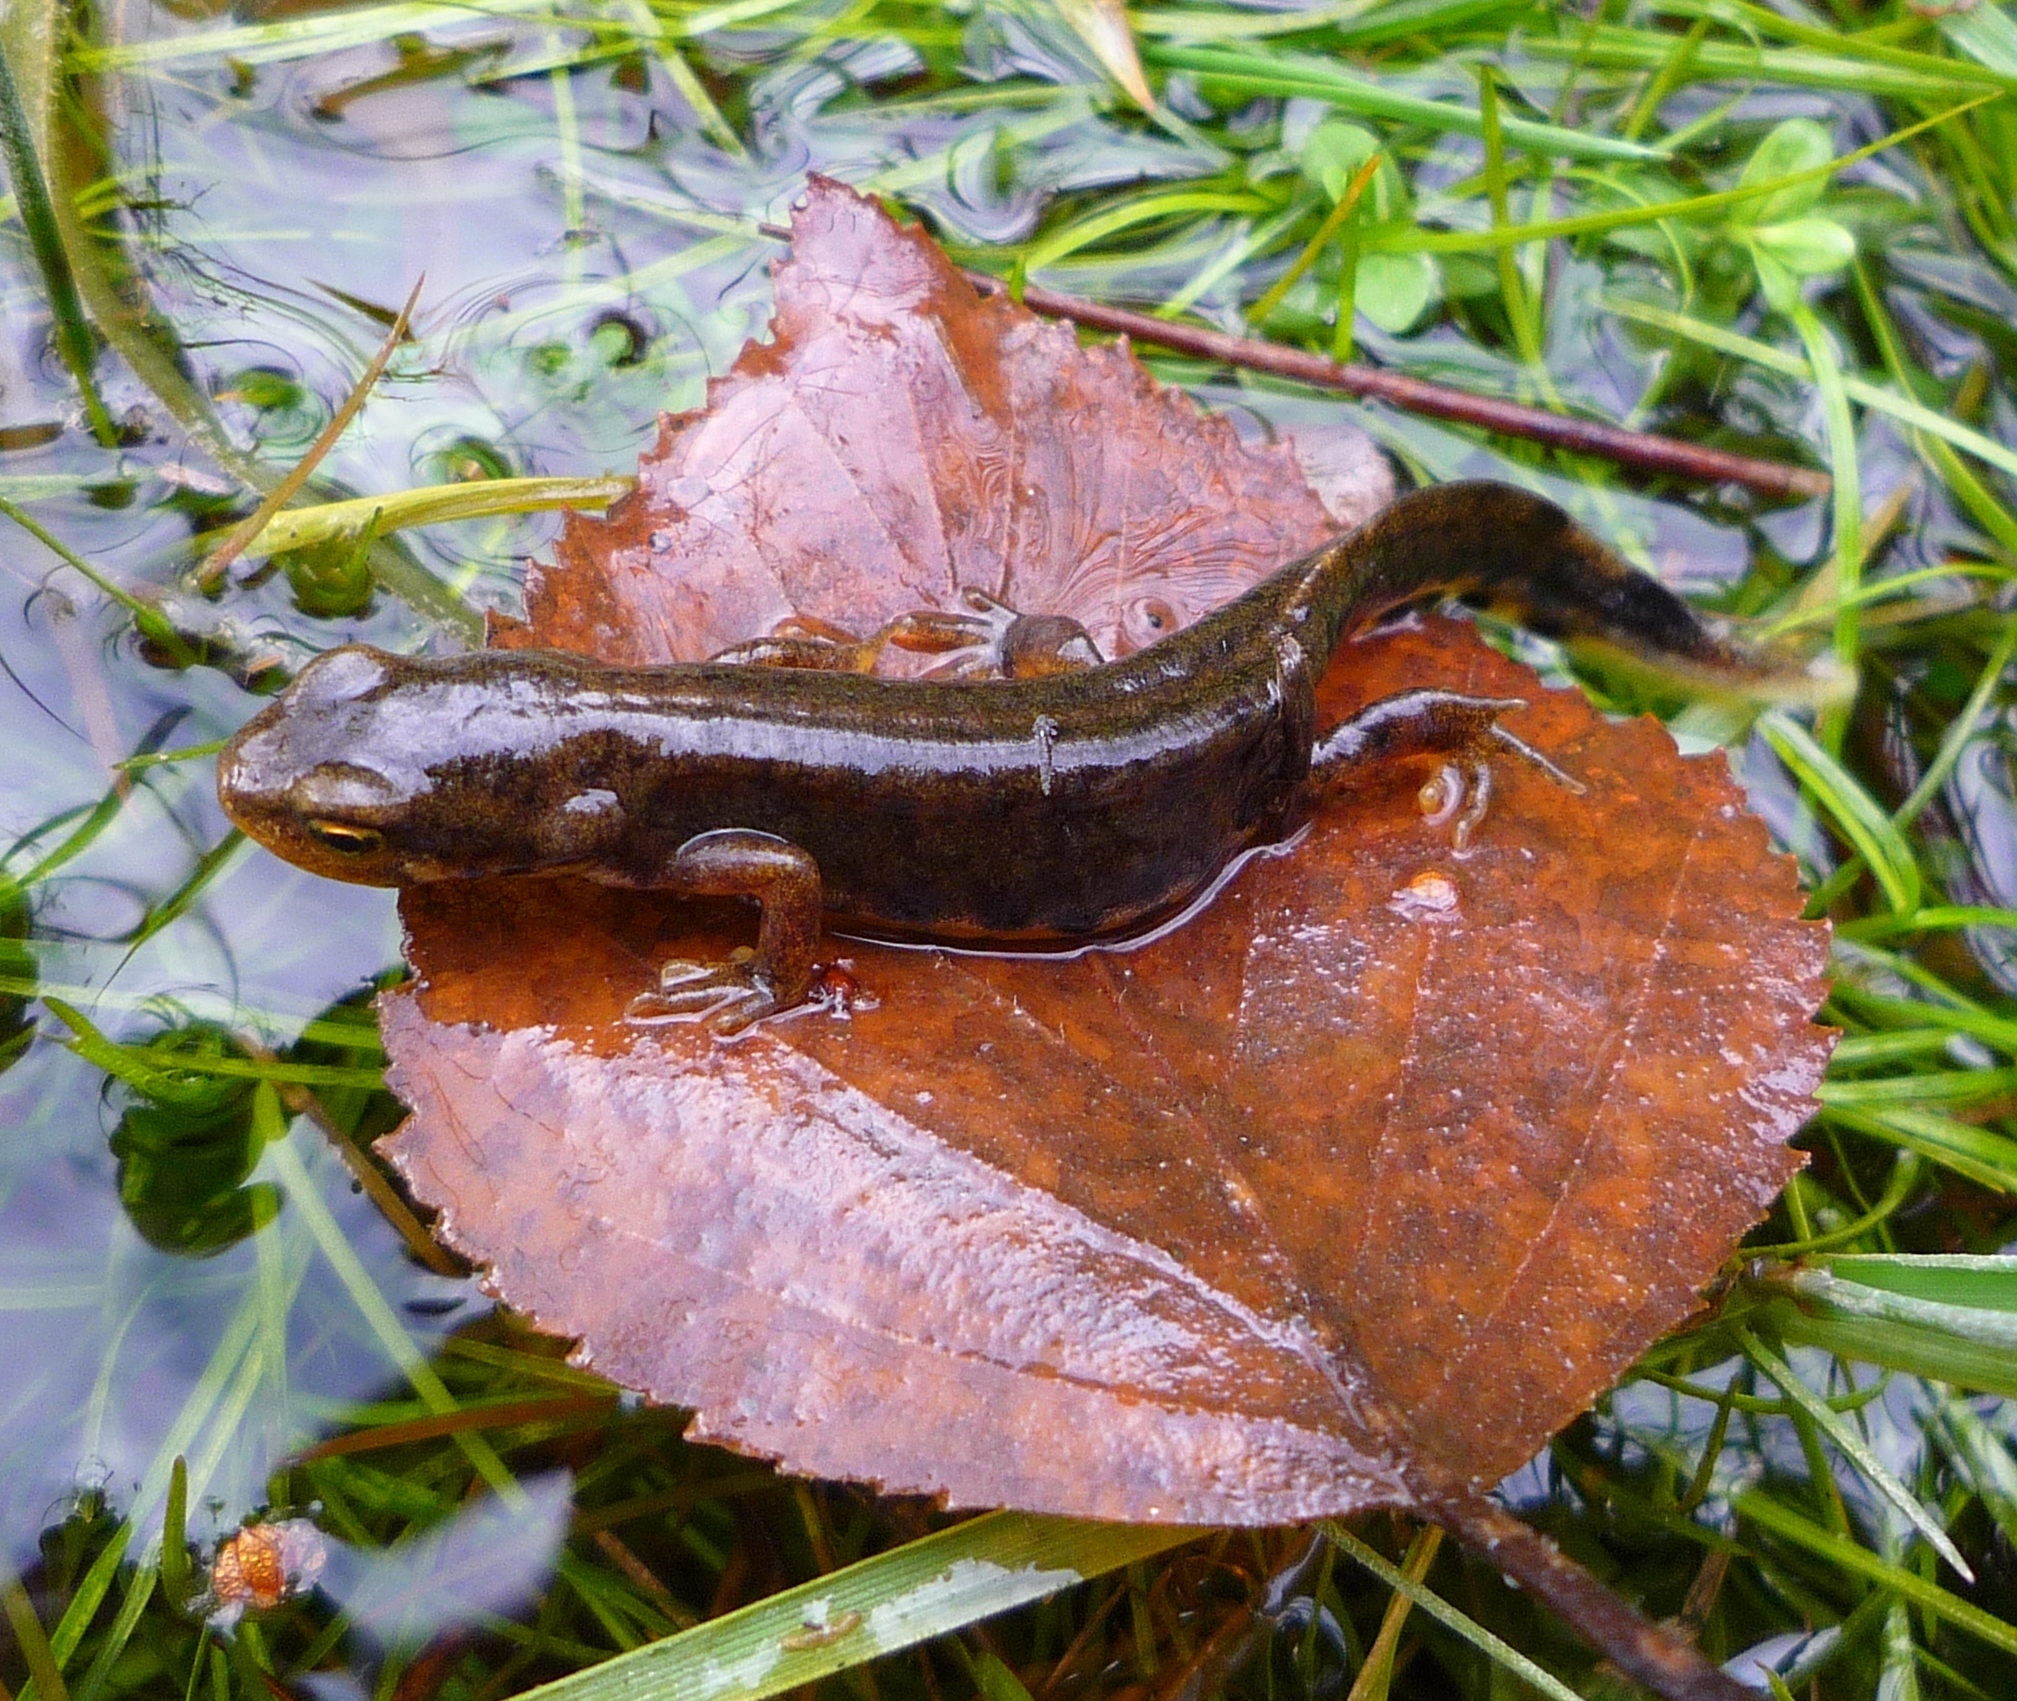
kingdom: Animalia
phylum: Chordata
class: Amphibia
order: Caudata
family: Salamandridae
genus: Lissotriton
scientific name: Lissotriton boscai
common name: Bosca's newt
